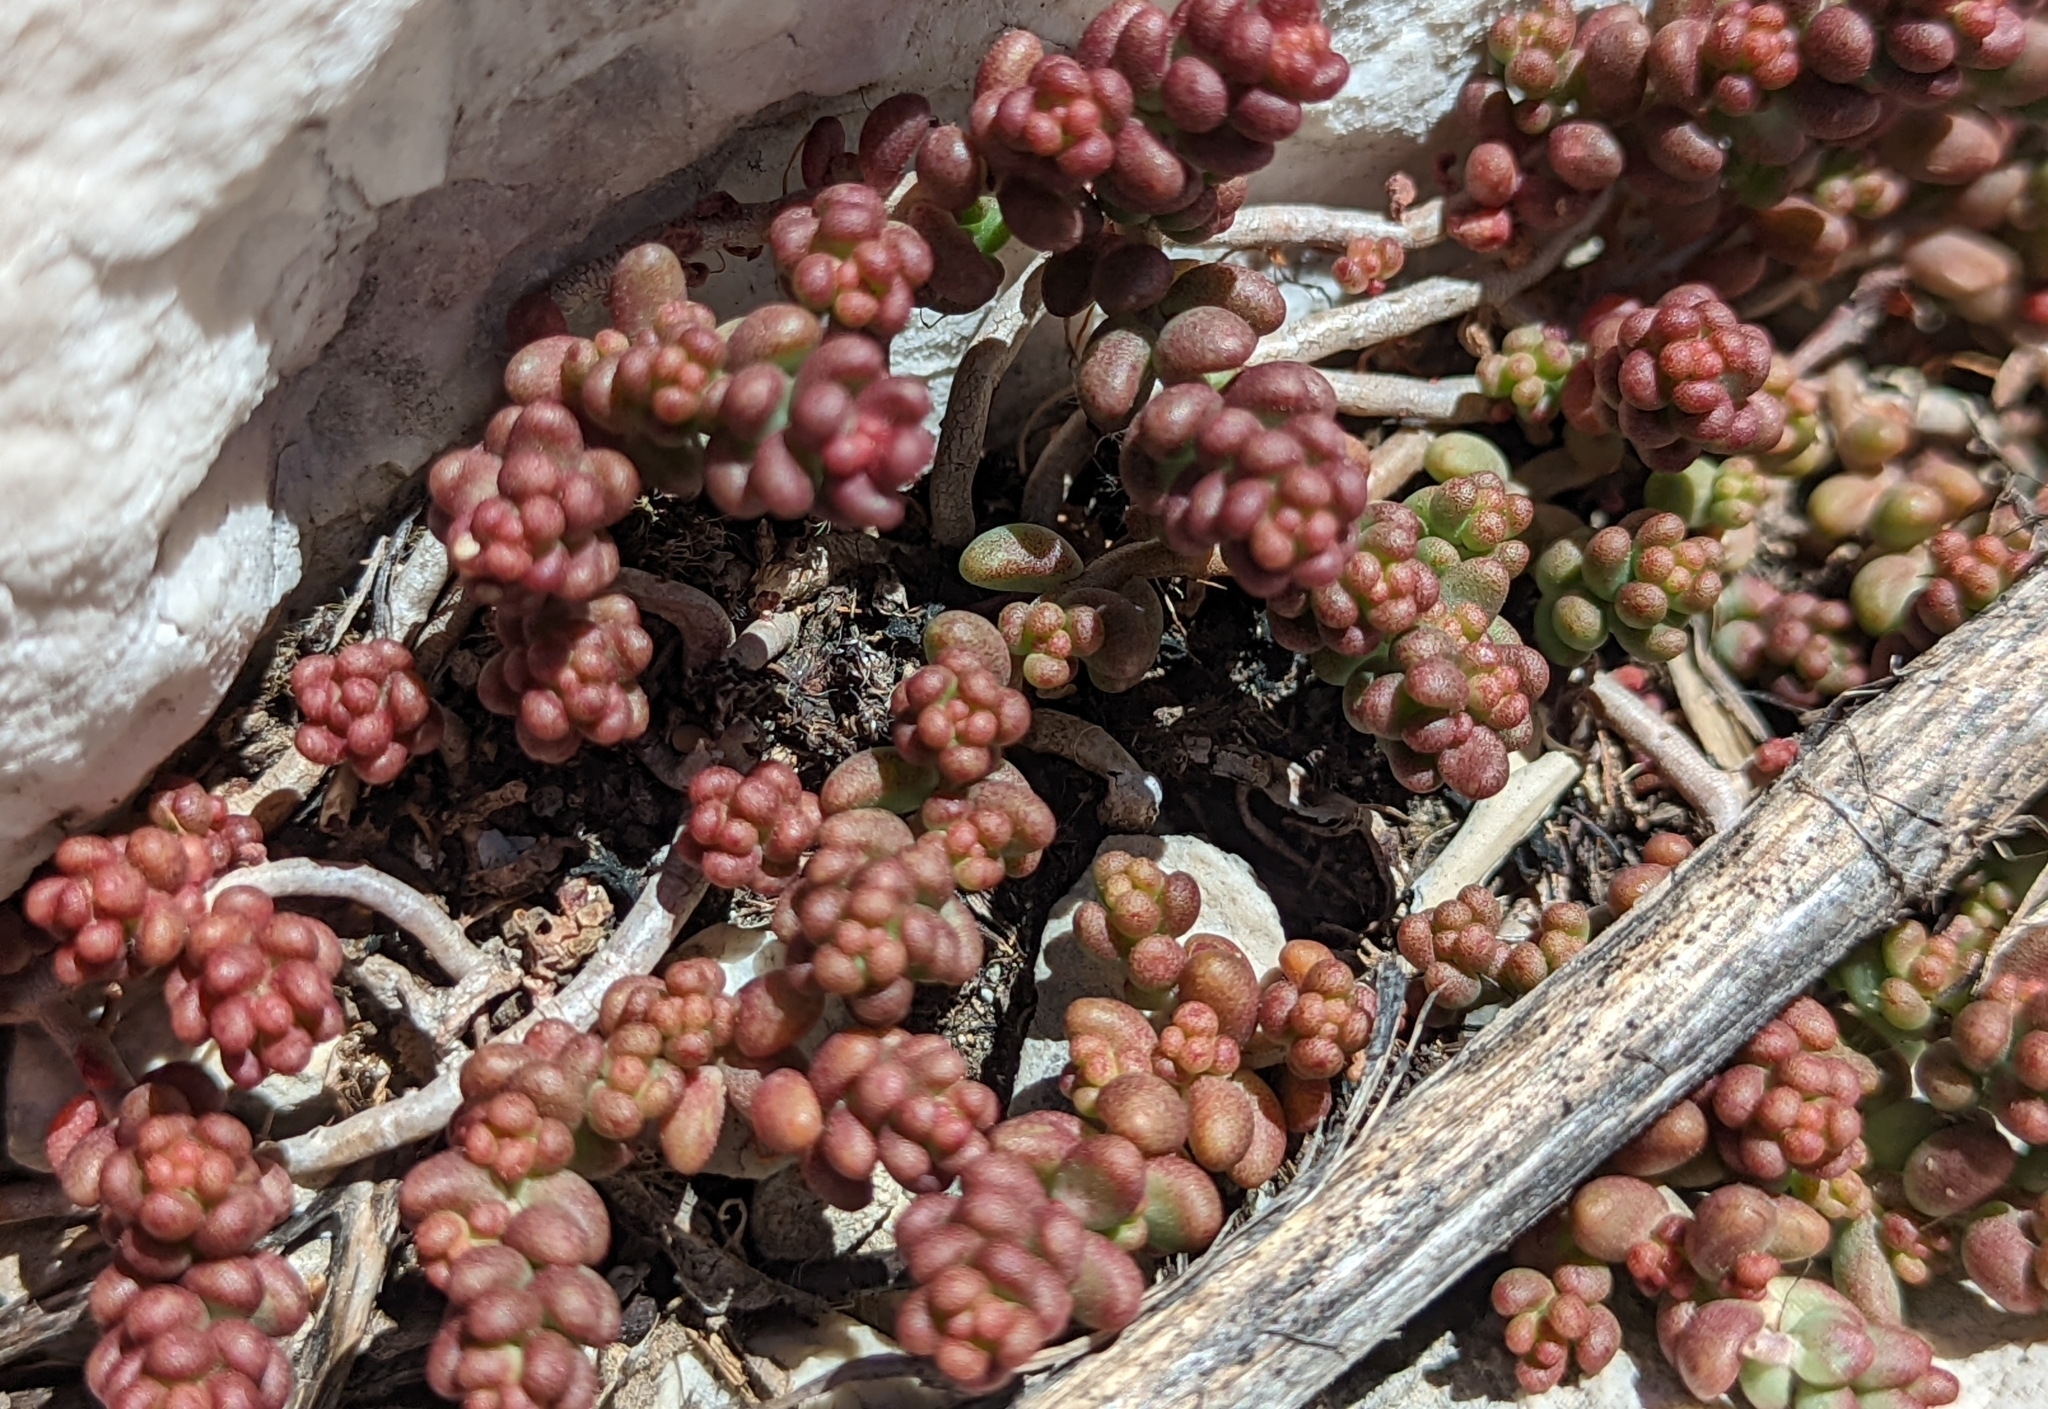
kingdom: Plantae
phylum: Tracheophyta
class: Magnoliopsida
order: Saxifragales
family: Crassulaceae
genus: Sedum
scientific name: Sedum album
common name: White stonecrop
